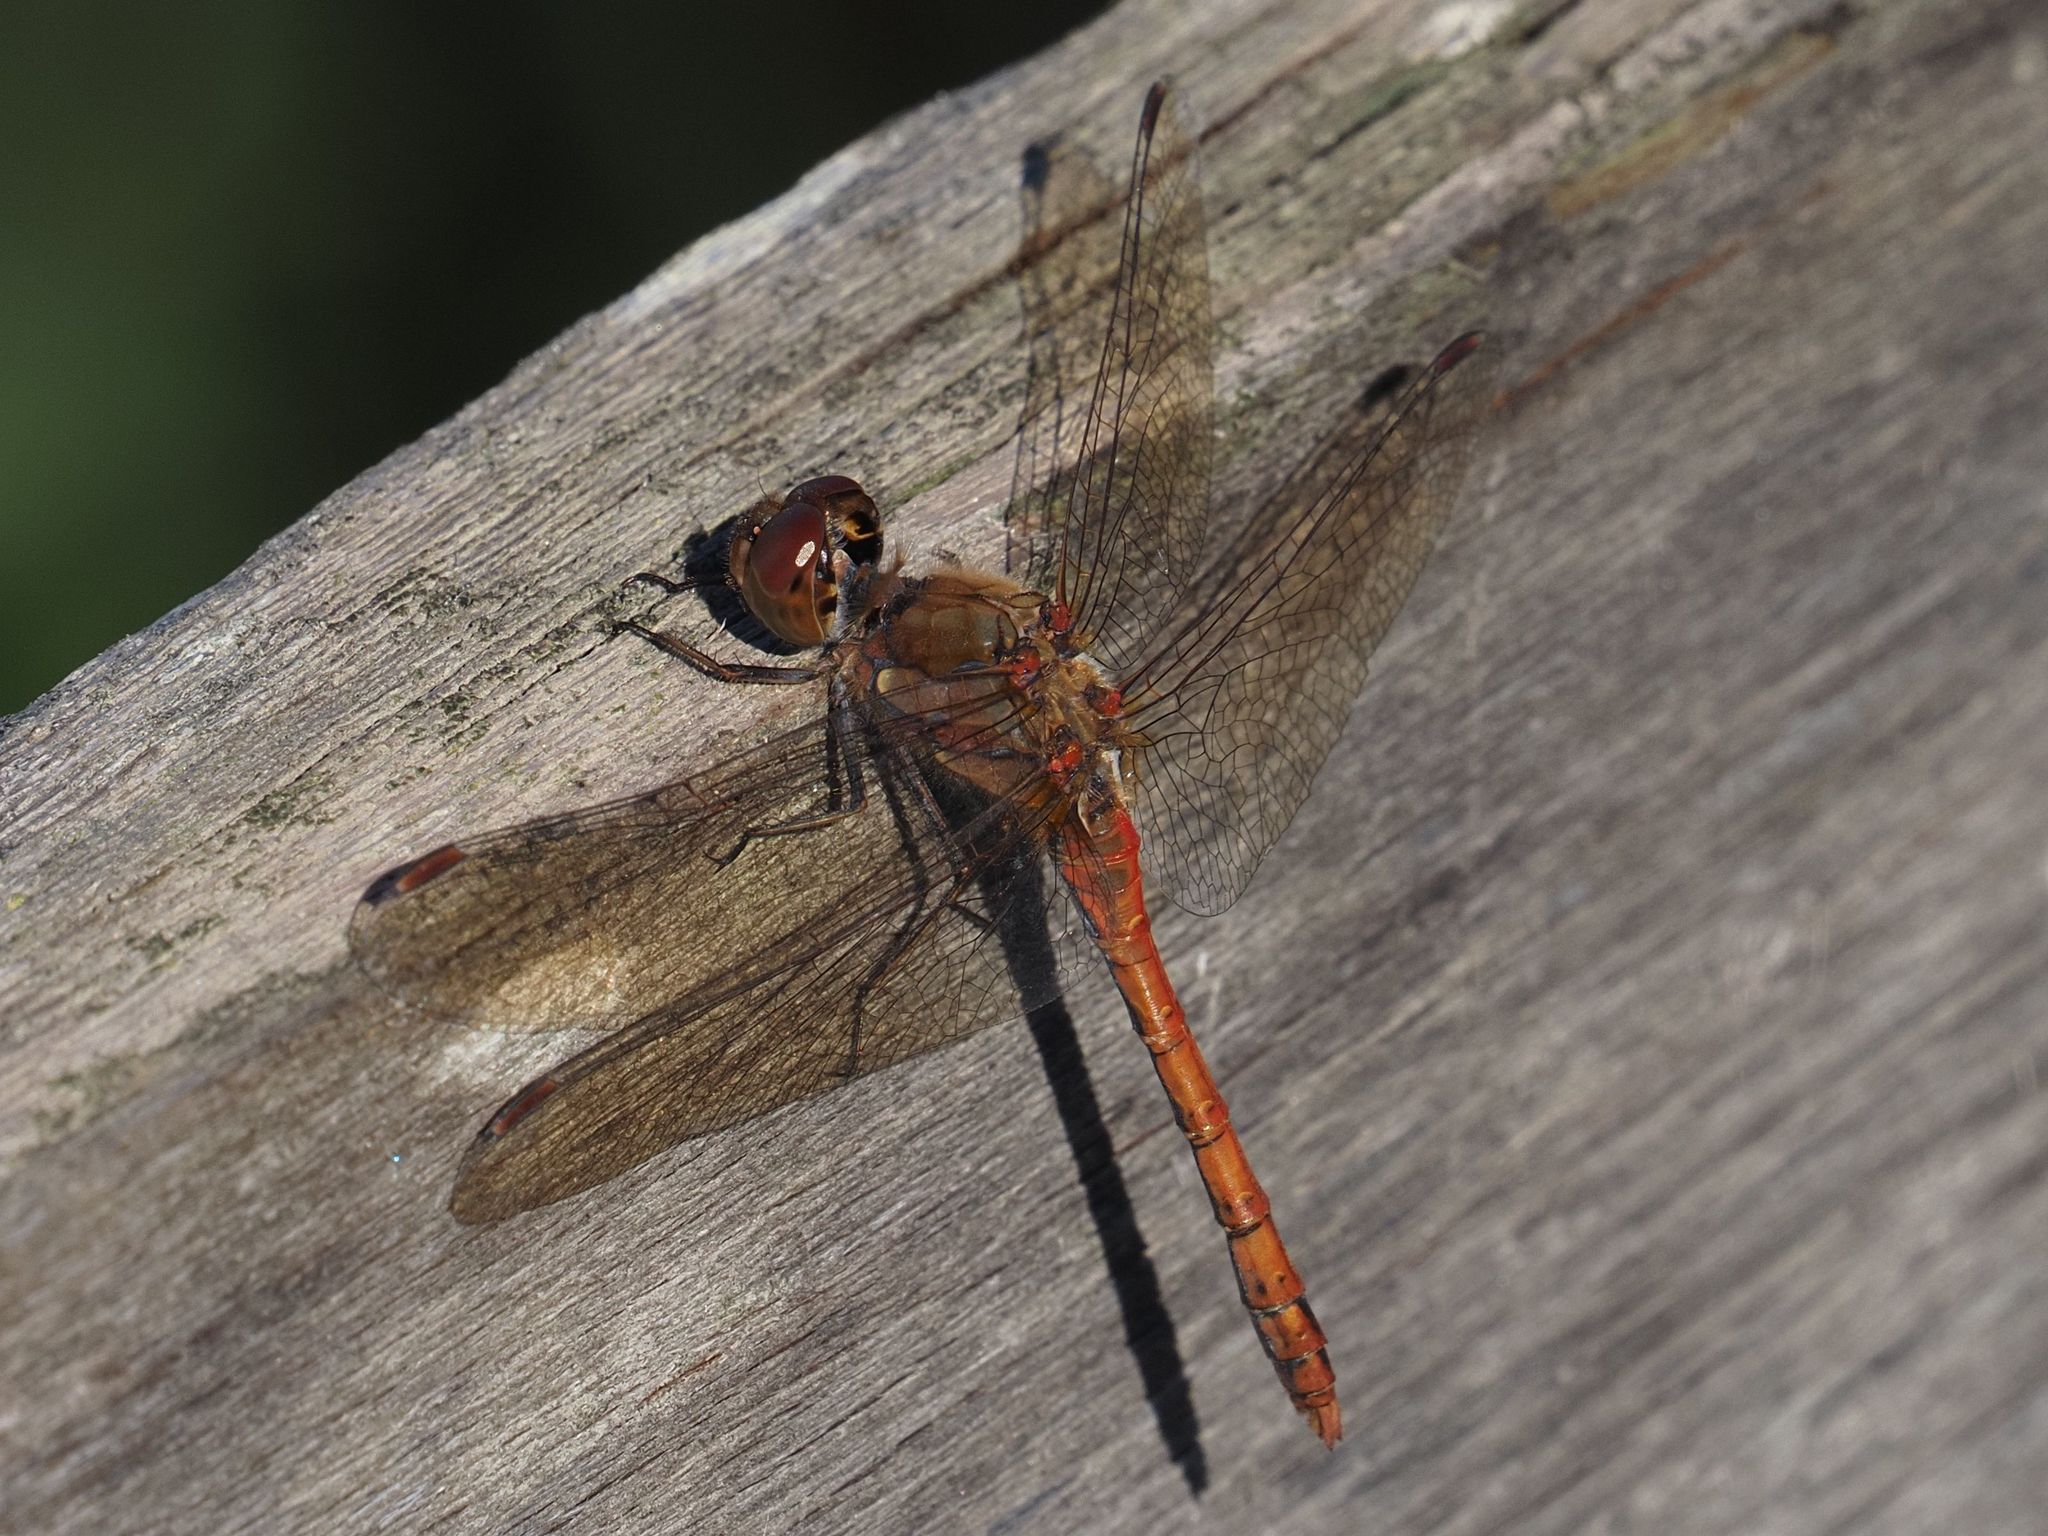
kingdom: Animalia
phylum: Arthropoda
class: Insecta
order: Odonata
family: Libellulidae
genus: Sympetrum
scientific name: Sympetrum striolatum
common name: Common darter
